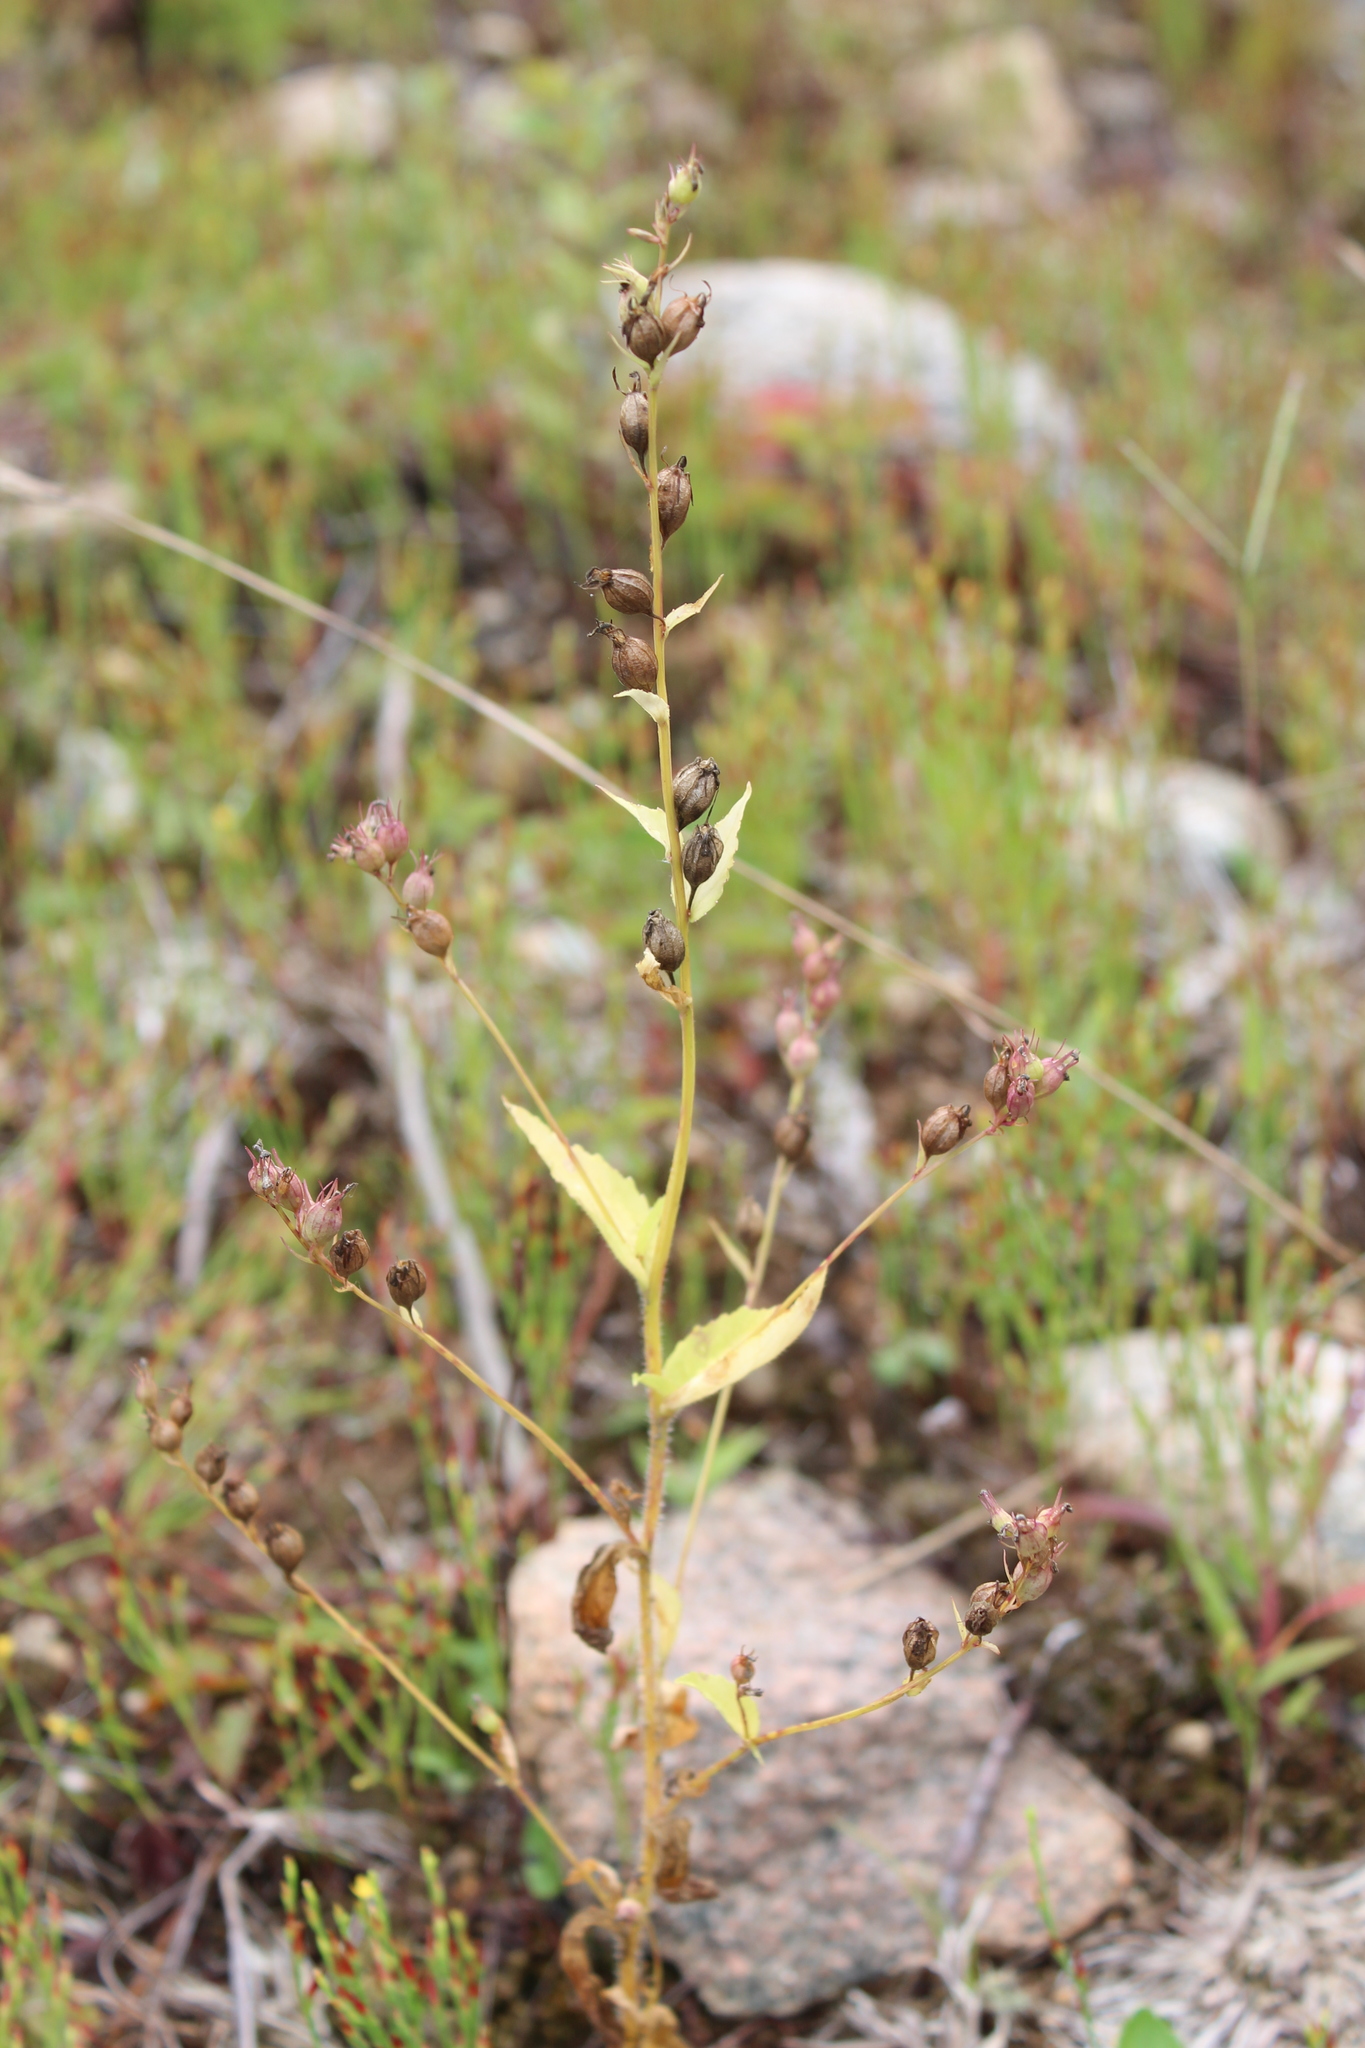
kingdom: Plantae
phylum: Tracheophyta
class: Magnoliopsida
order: Asterales
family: Campanulaceae
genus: Lobelia
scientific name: Lobelia inflata
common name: Indian tobacco
